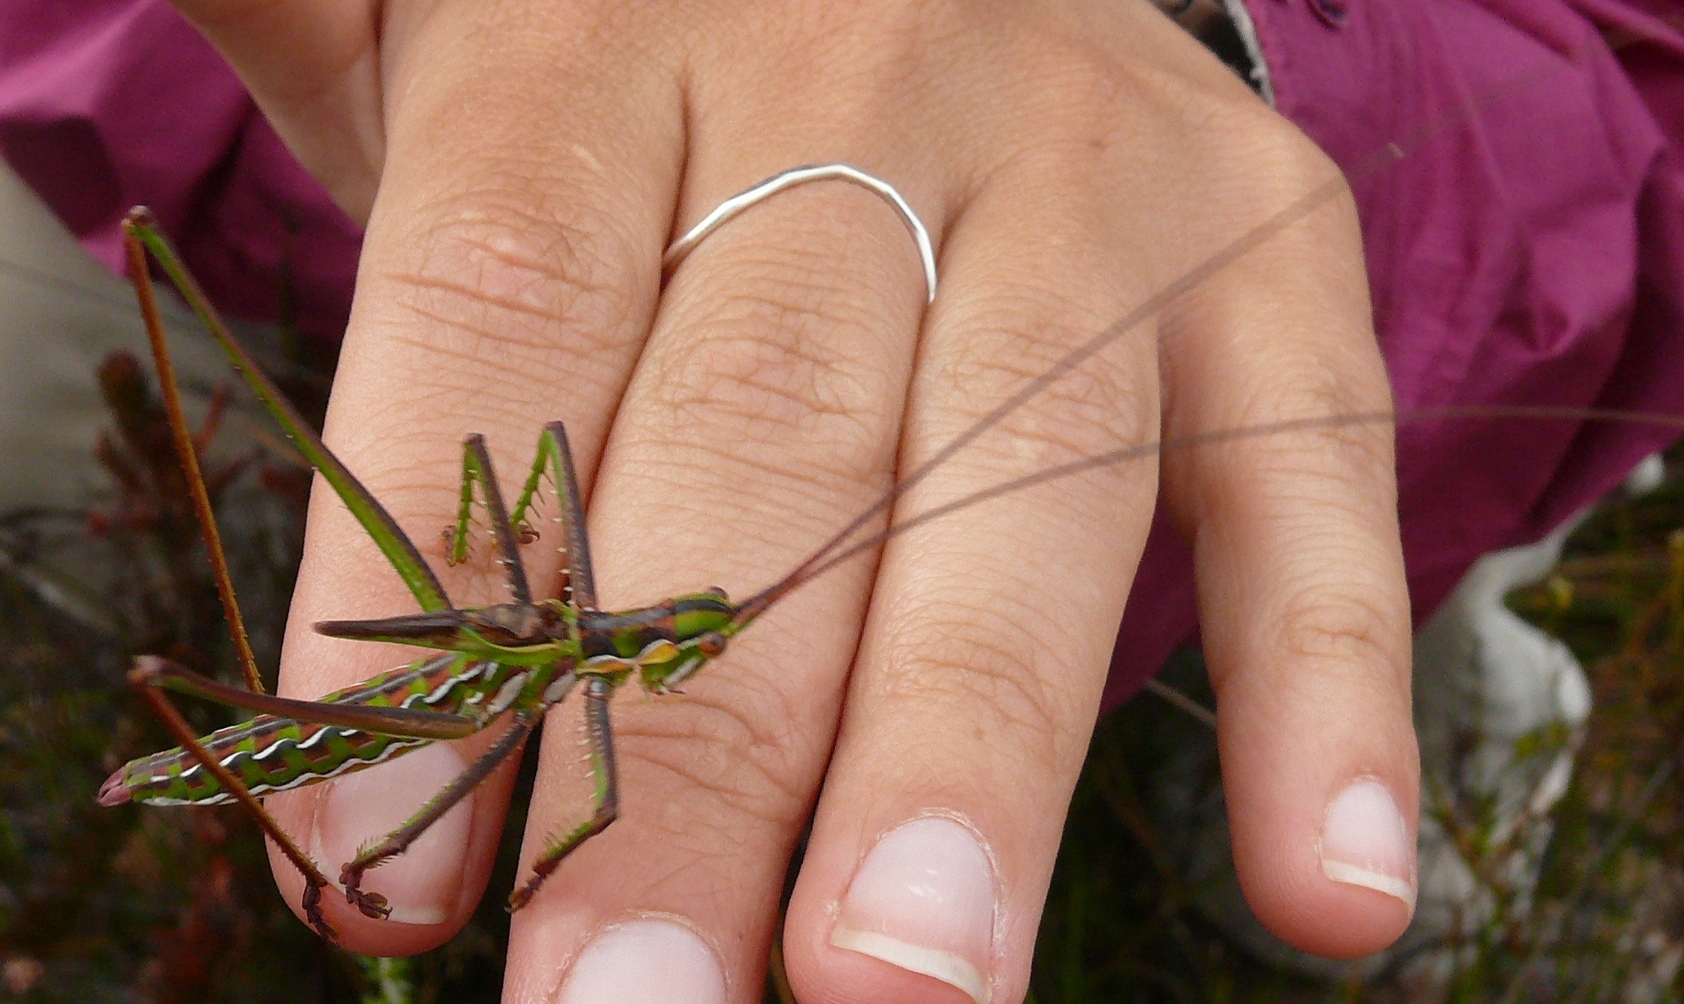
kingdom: Animalia
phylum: Arthropoda
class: Insecta
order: Orthoptera
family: Tettigoniidae
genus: Clonia
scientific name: Clonia minuta
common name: Small wavy clonia
